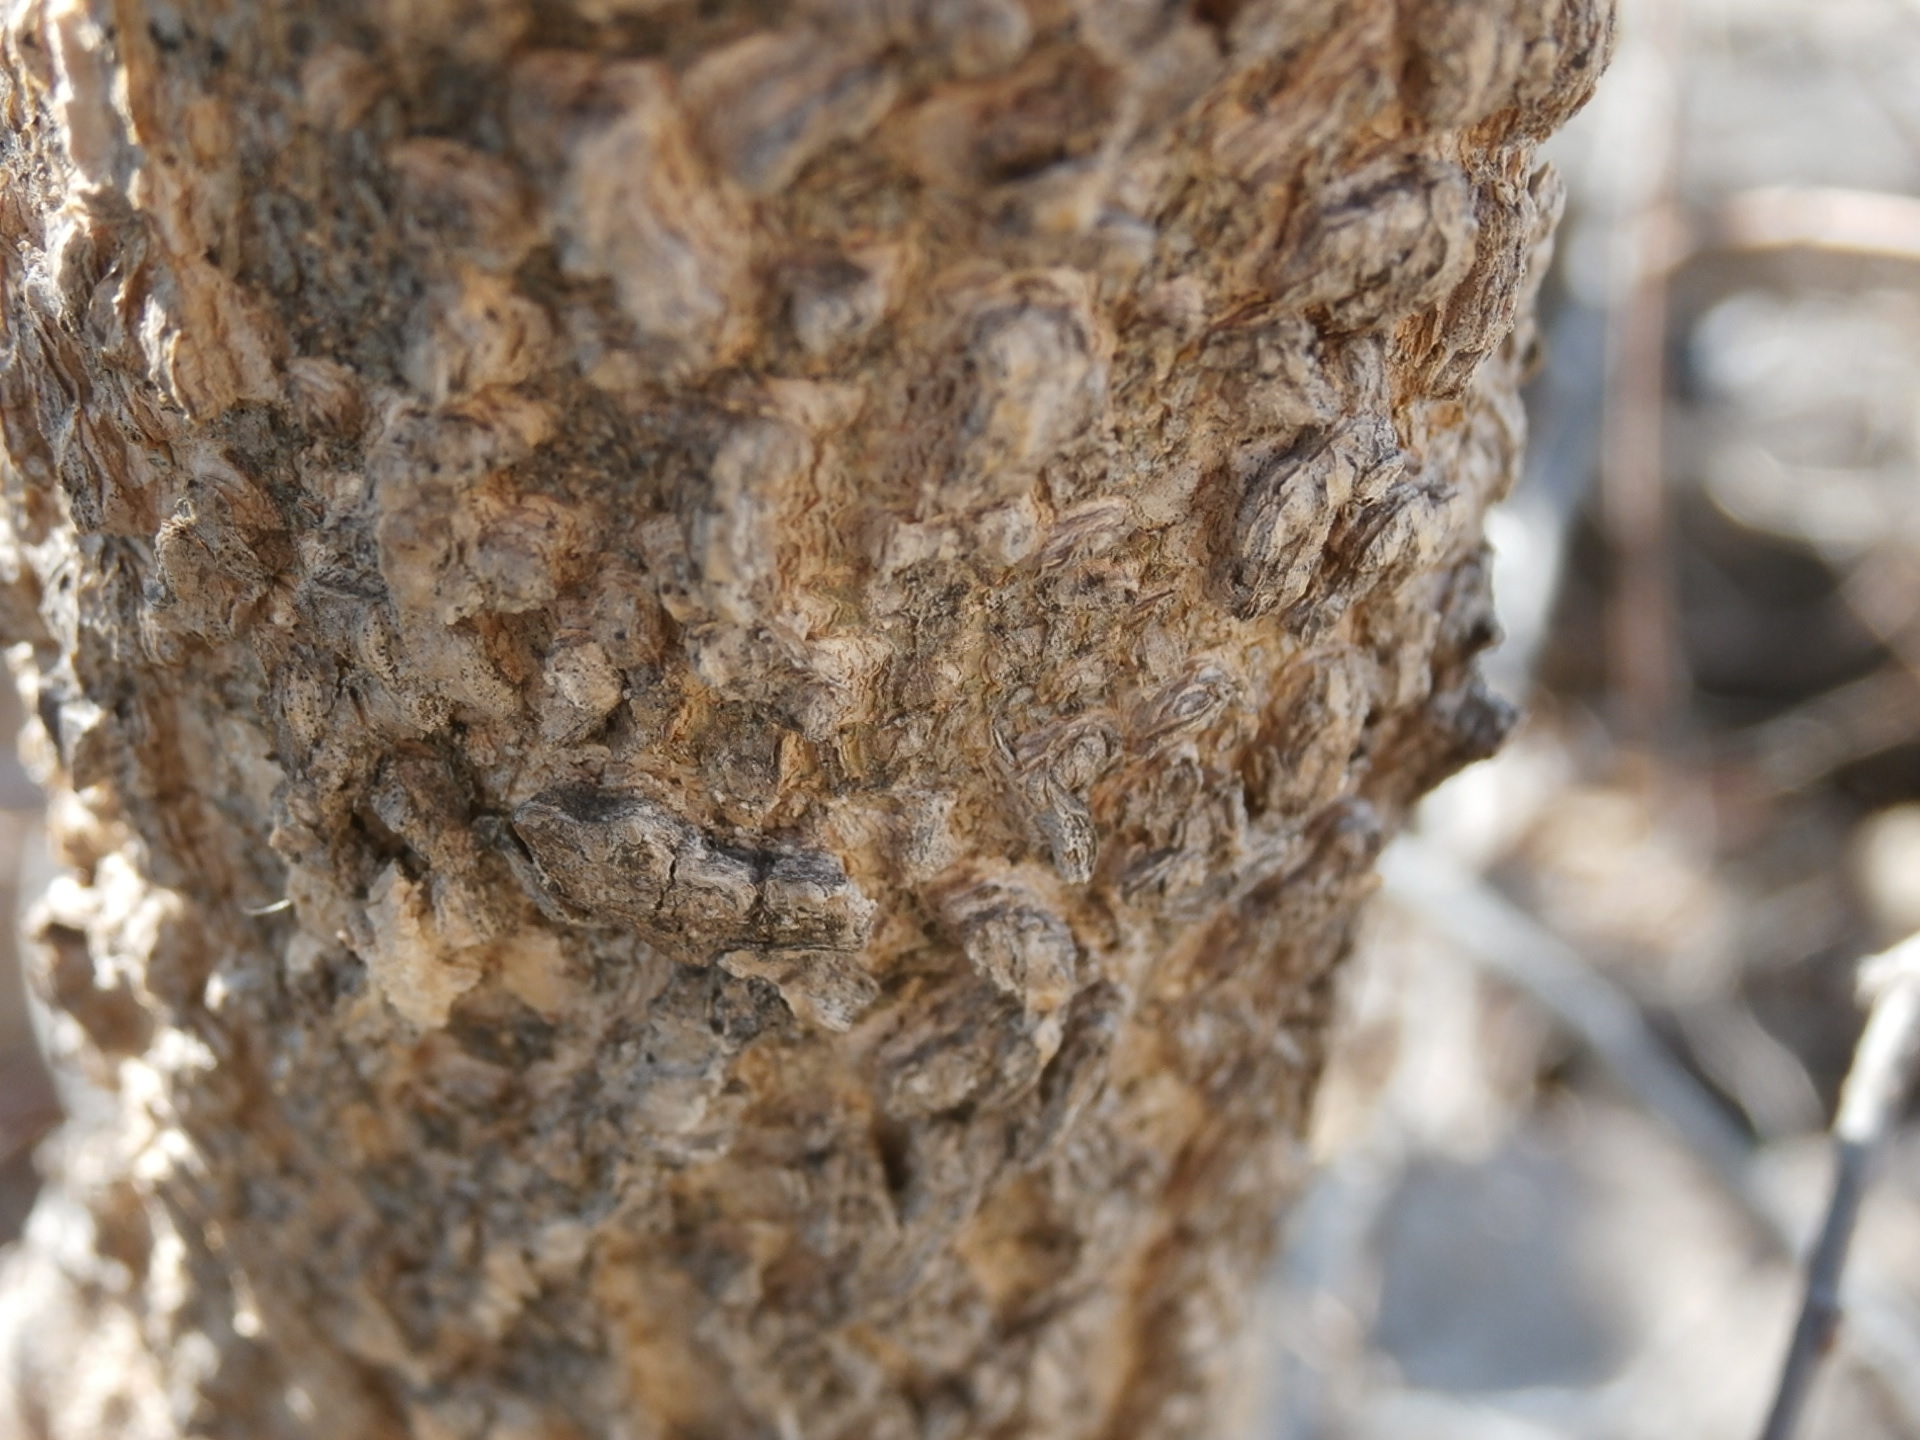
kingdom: Plantae
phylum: Tracheophyta
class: Magnoliopsida
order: Rosales
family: Cannabaceae
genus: Celtis
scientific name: Celtis occidentalis
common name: Common hackberry
